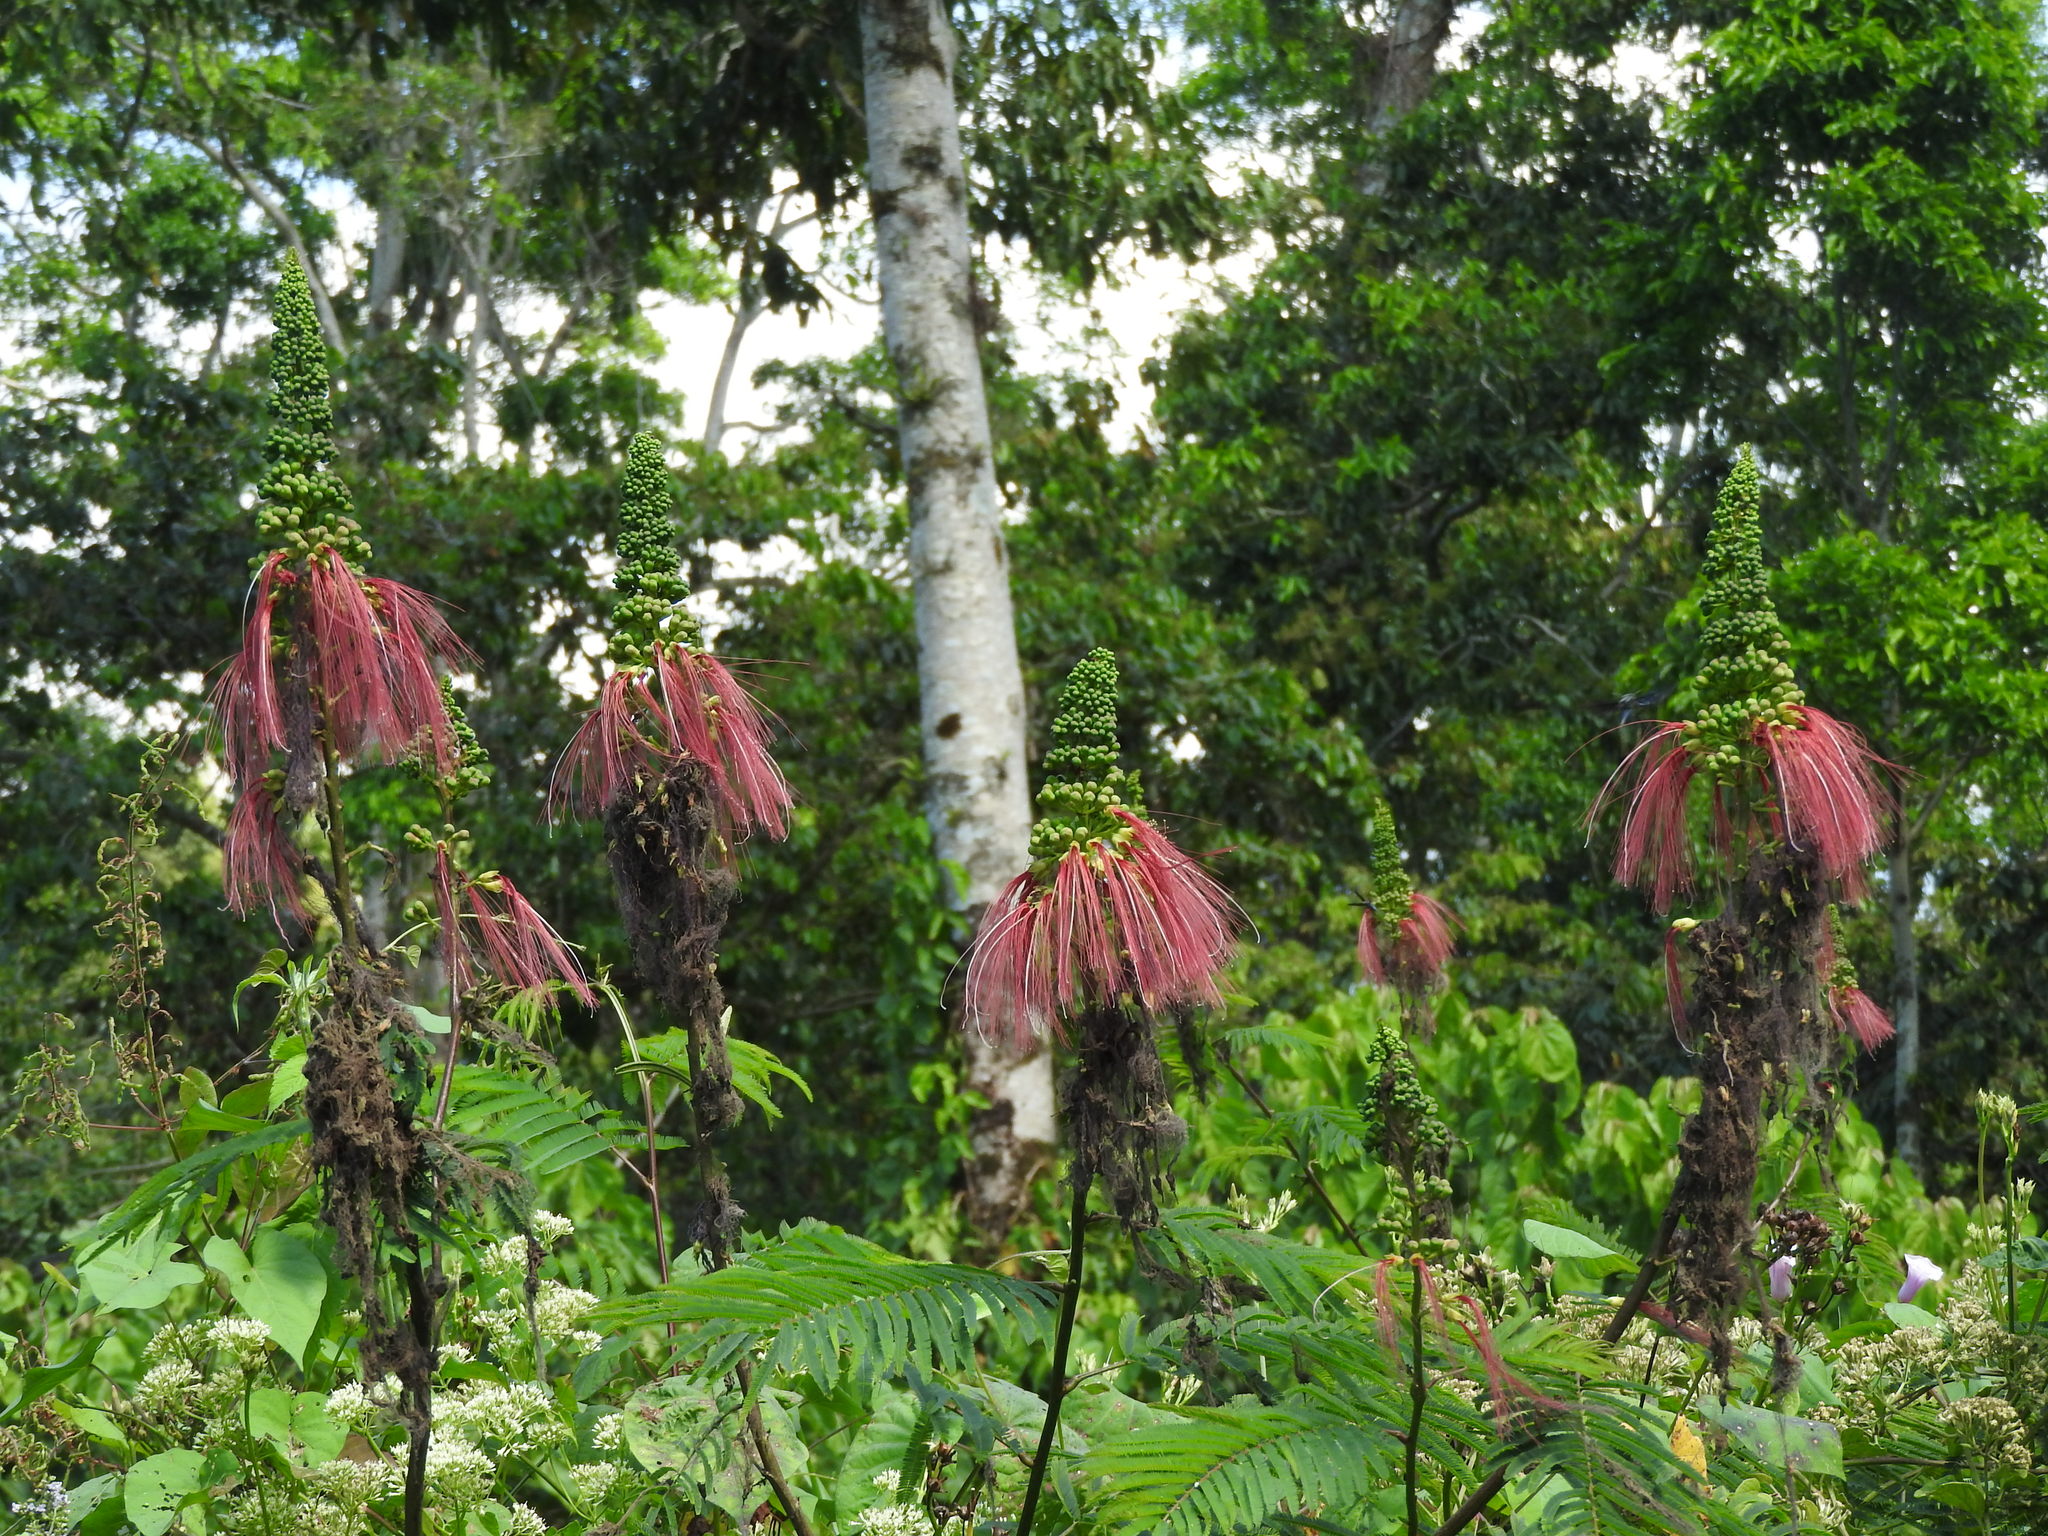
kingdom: Plantae
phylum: Tracheophyta
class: Magnoliopsida
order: Fabales
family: Fabaceae
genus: Calliandra
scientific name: Calliandra houstoniana
